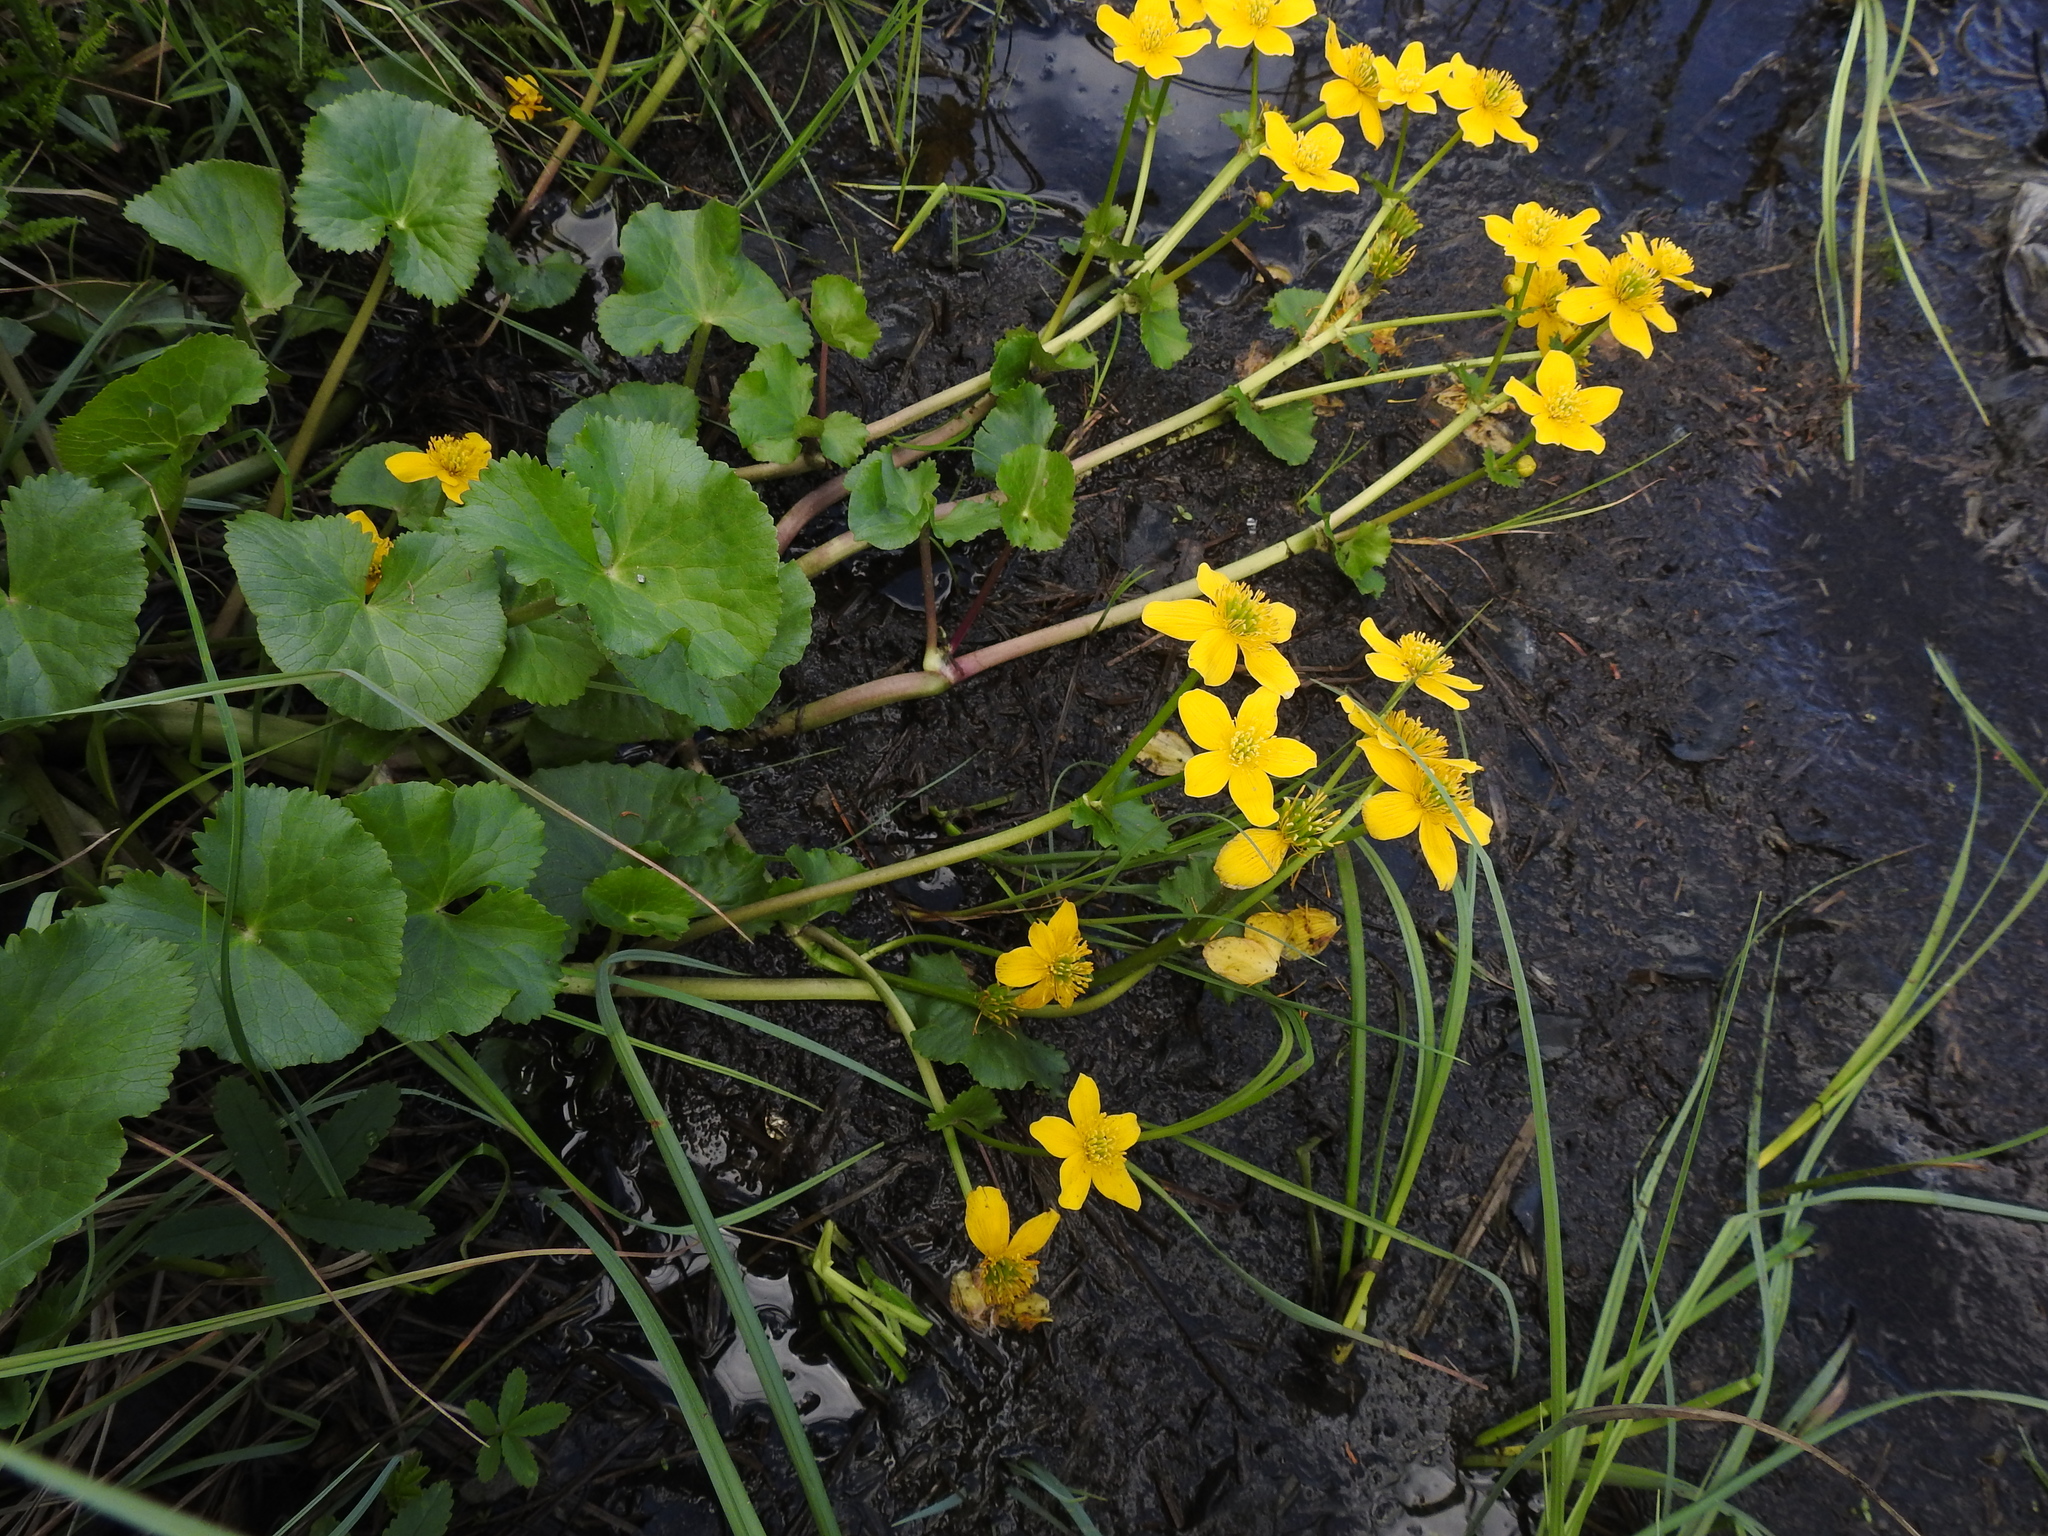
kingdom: Plantae
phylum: Tracheophyta
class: Magnoliopsida
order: Ranunculales
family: Ranunculaceae
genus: Caltha
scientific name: Caltha palustris
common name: Marsh marigold
